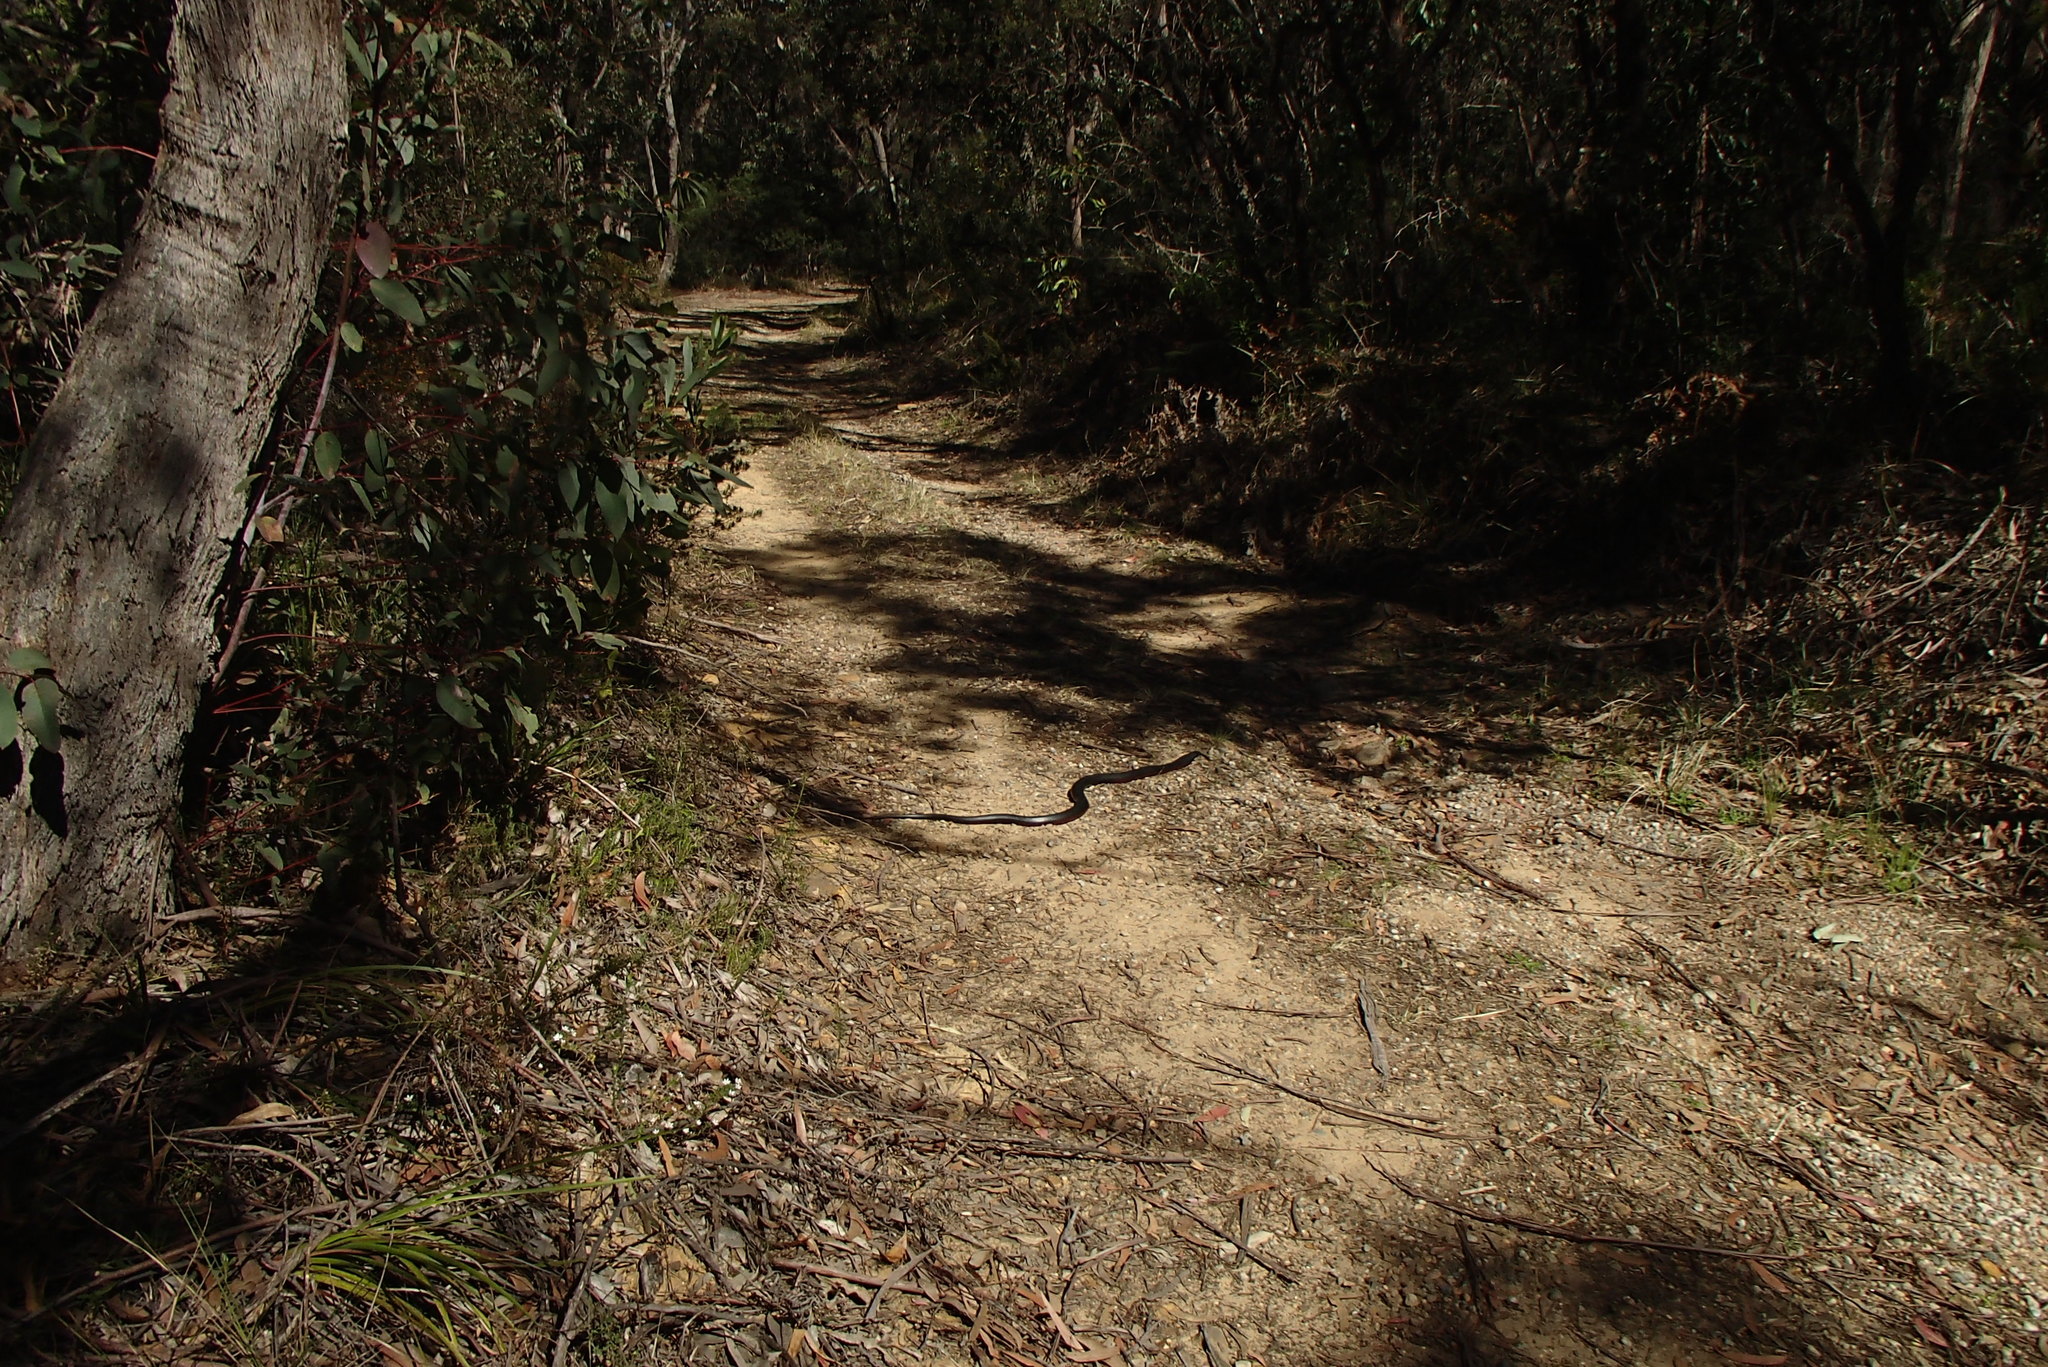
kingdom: Animalia
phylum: Chordata
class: Squamata
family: Elapidae
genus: Pseudechis
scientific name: Pseudechis porphyriacus
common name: Australian black snake
